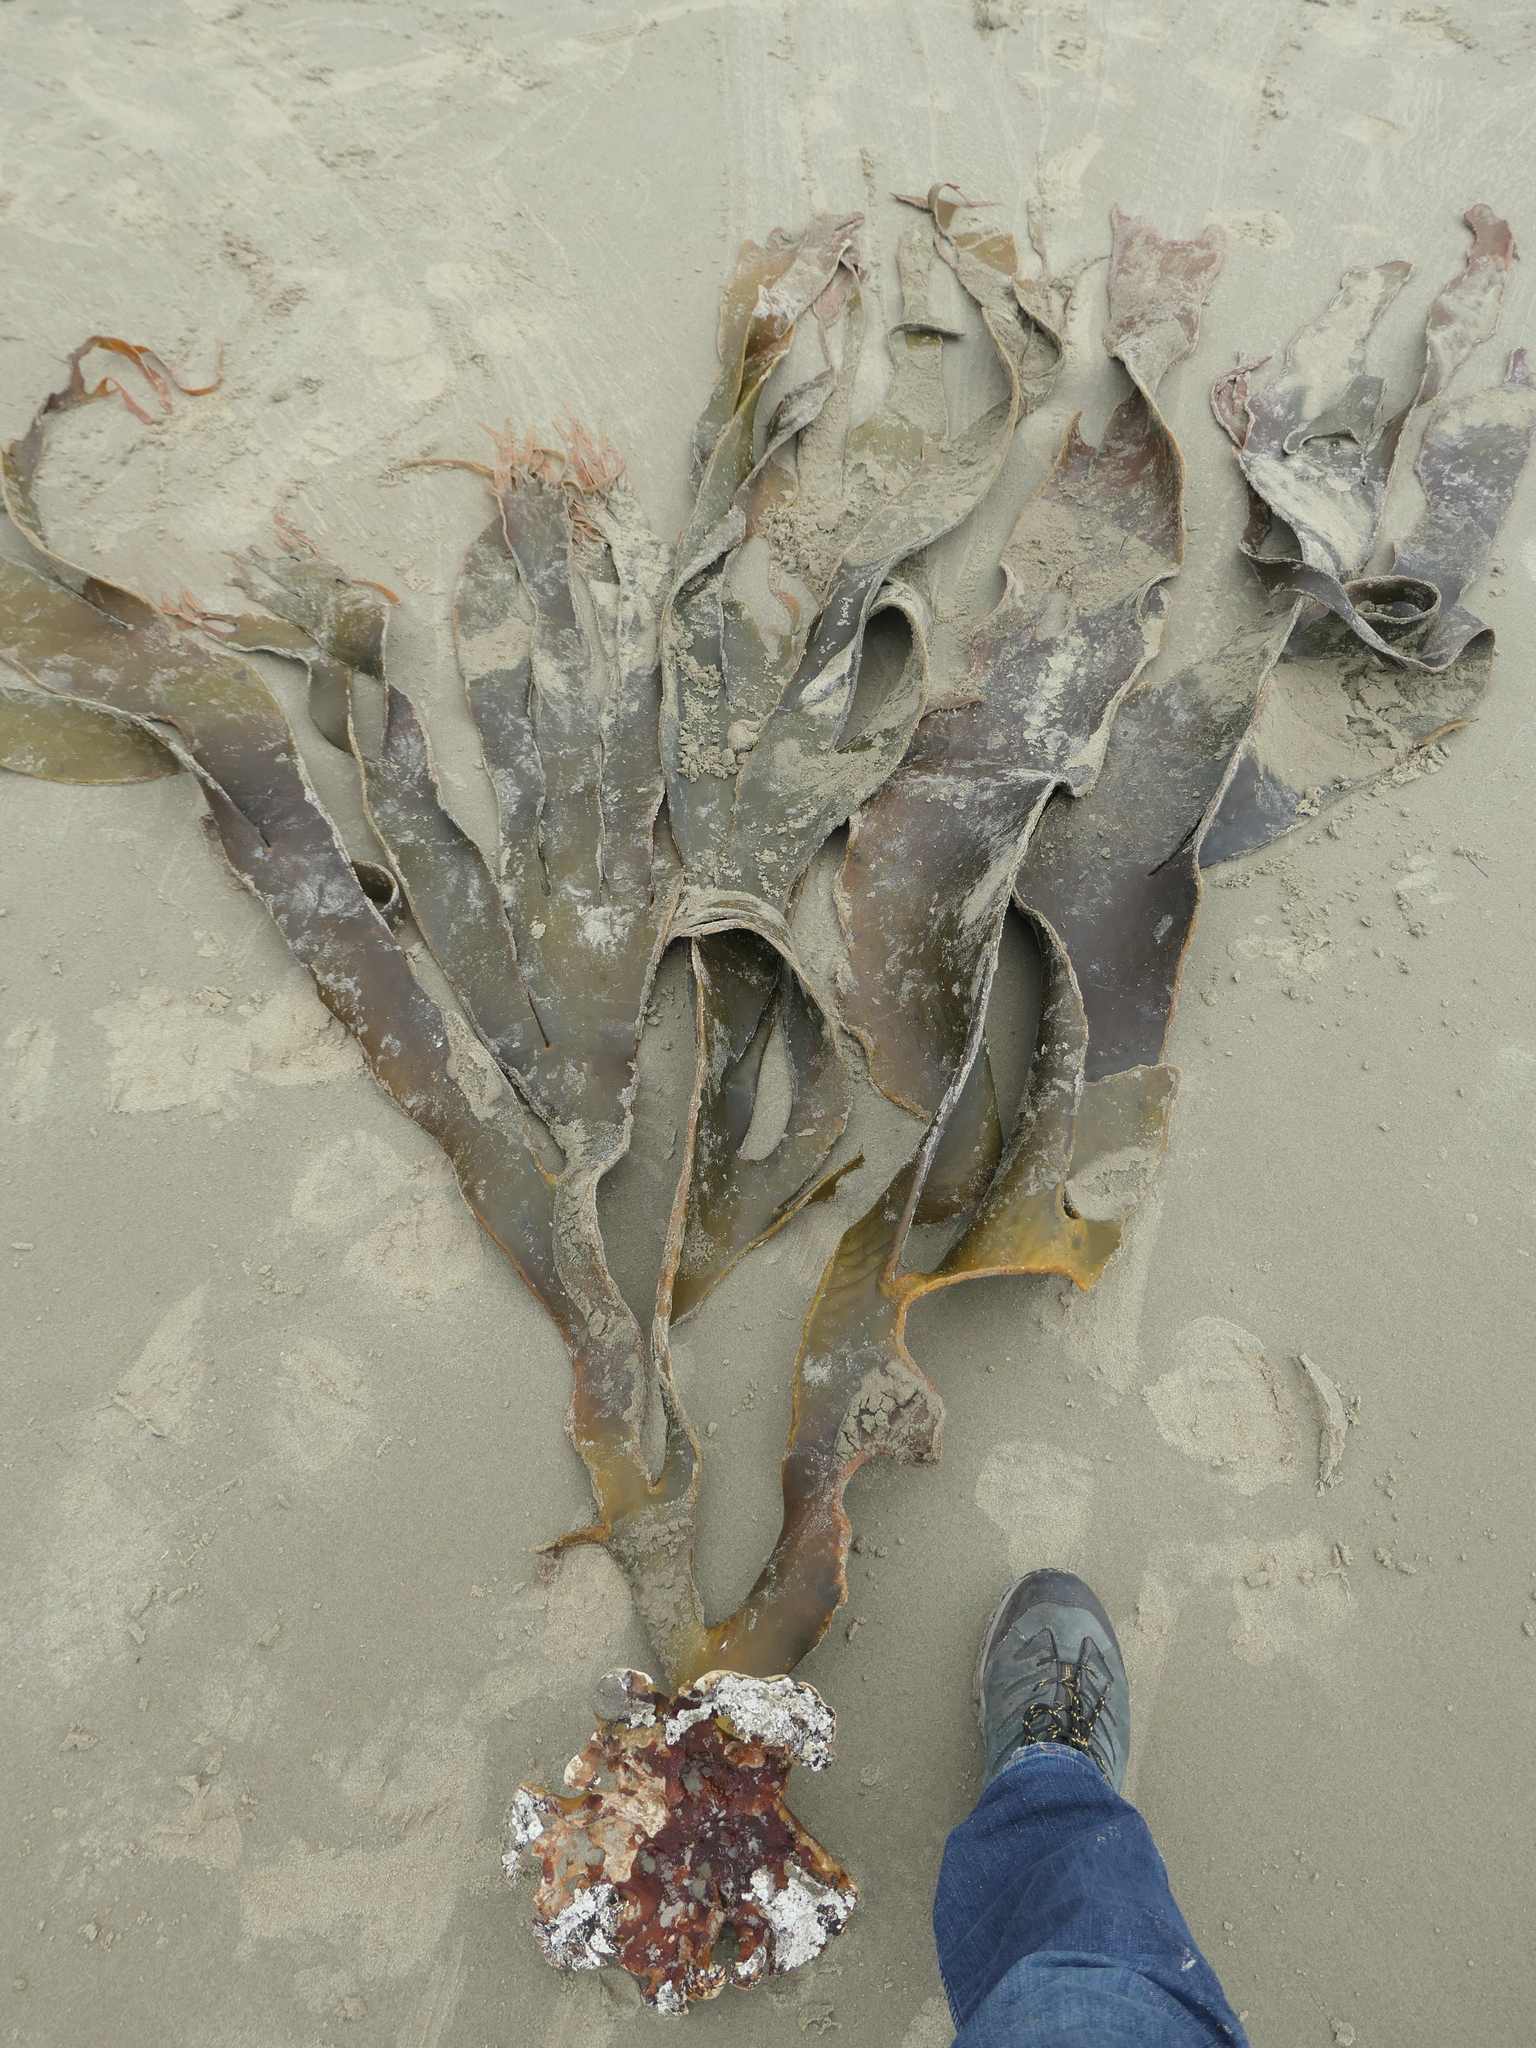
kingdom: Chromista
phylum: Ochrophyta
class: Phaeophyceae
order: Fucales
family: Durvillaeaceae
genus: Durvillaea
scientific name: Durvillaea poha
